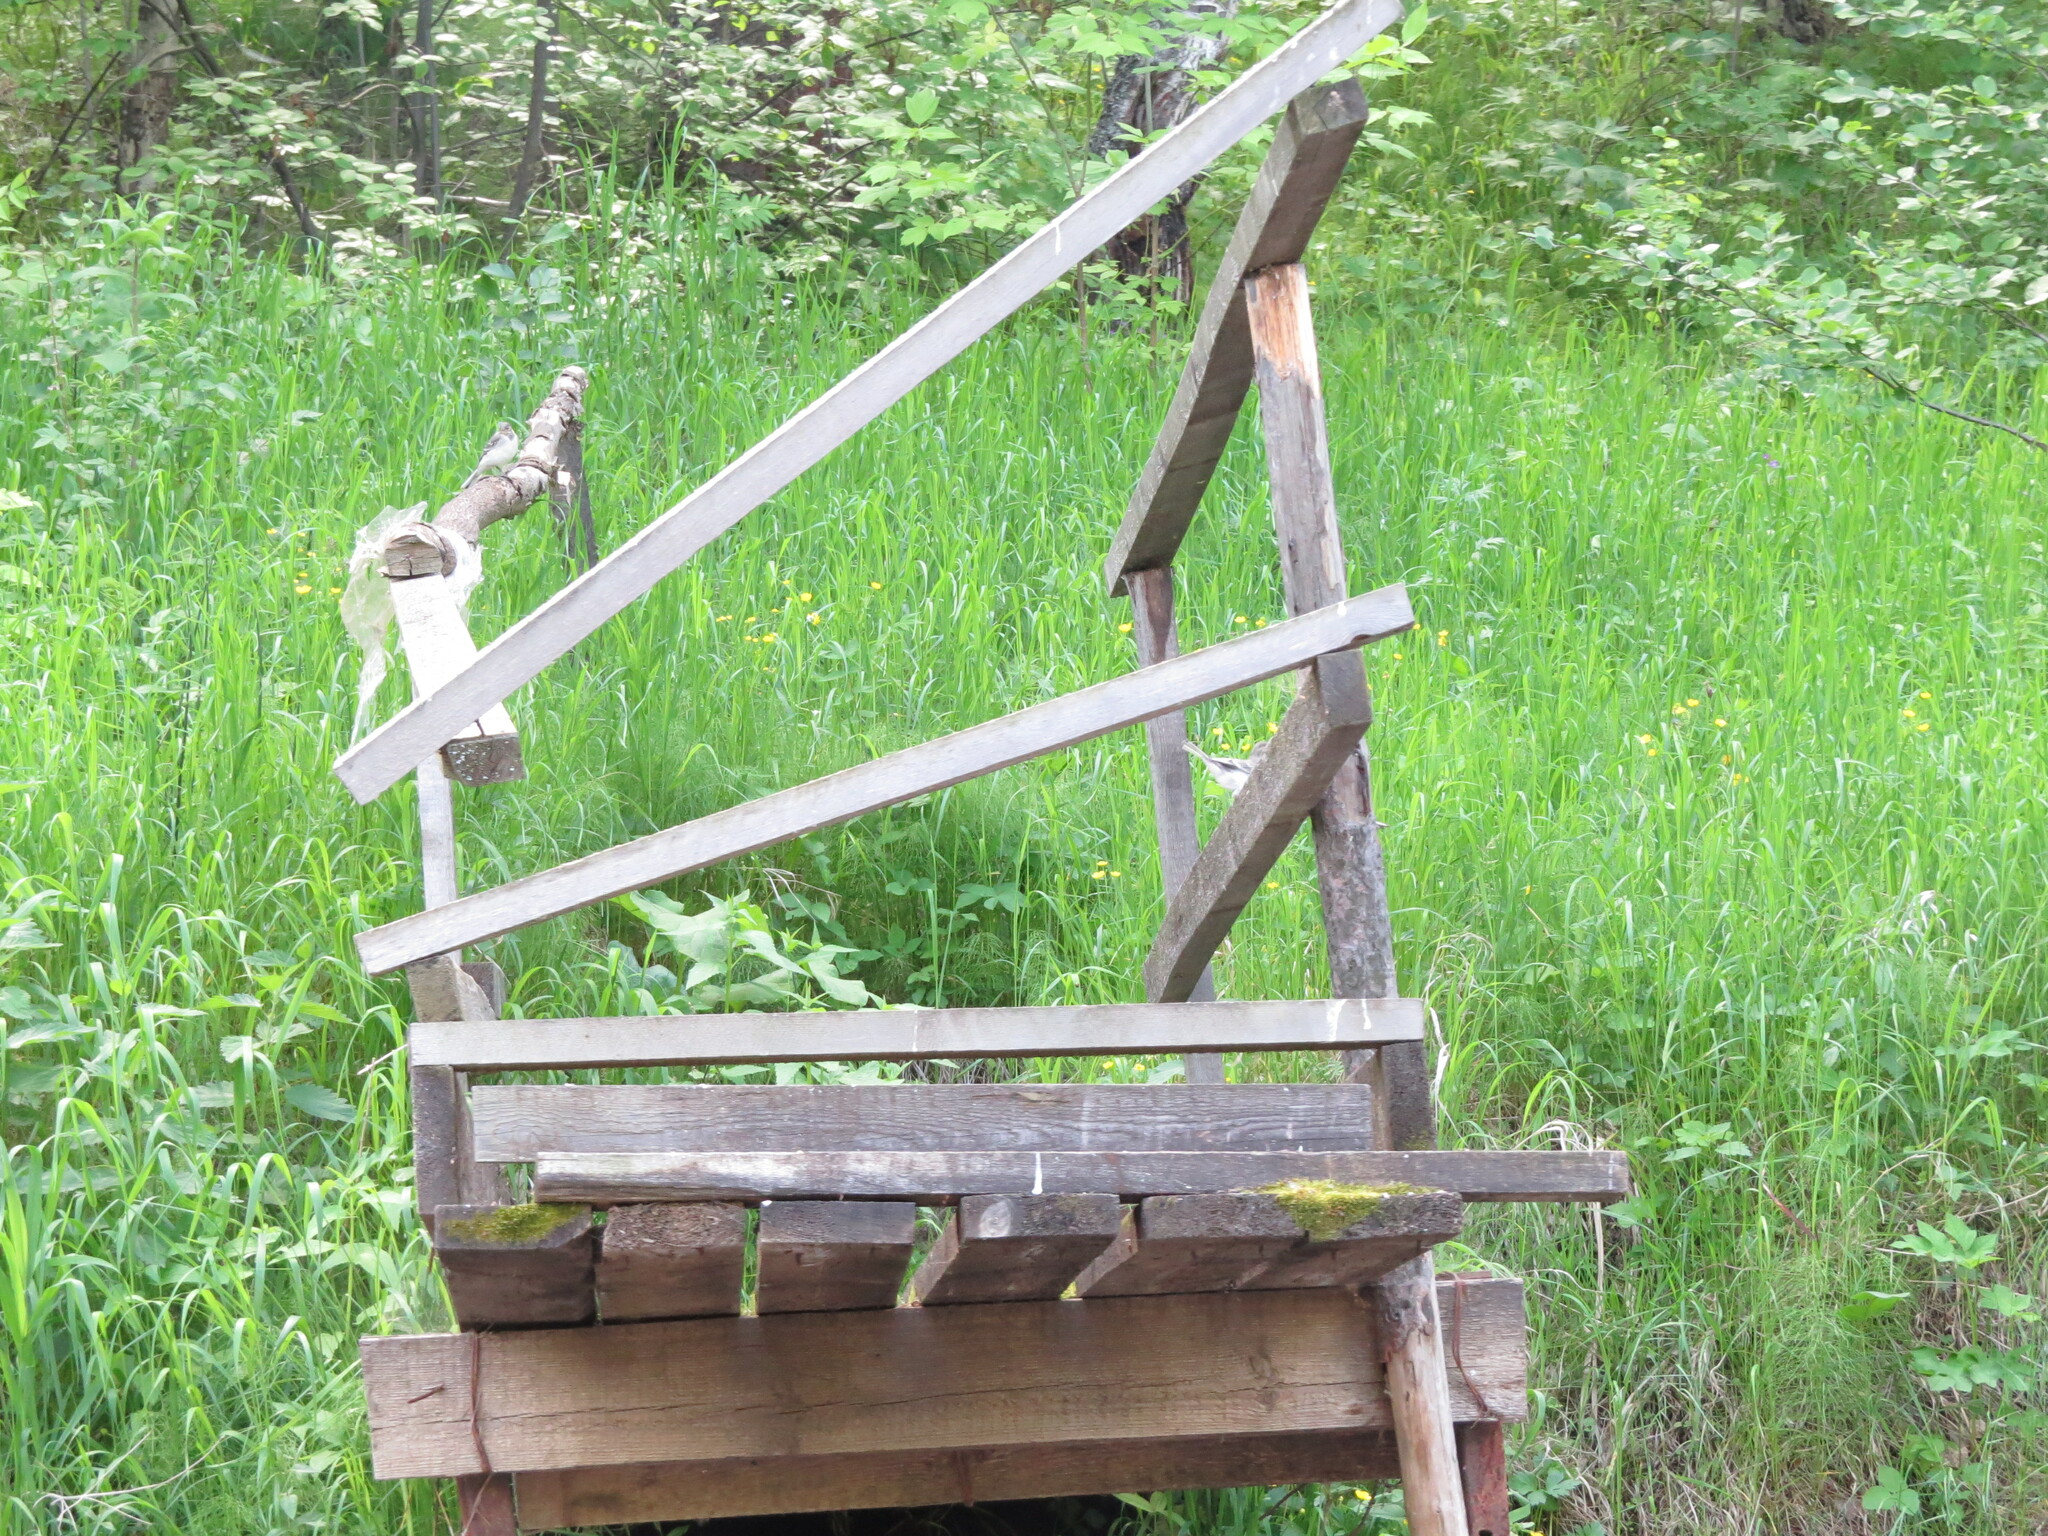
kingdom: Animalia
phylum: Chordata
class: Aves
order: Passeriformes
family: Motacillidae
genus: Motacilla
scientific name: Motacilla alba
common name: White wagtail
